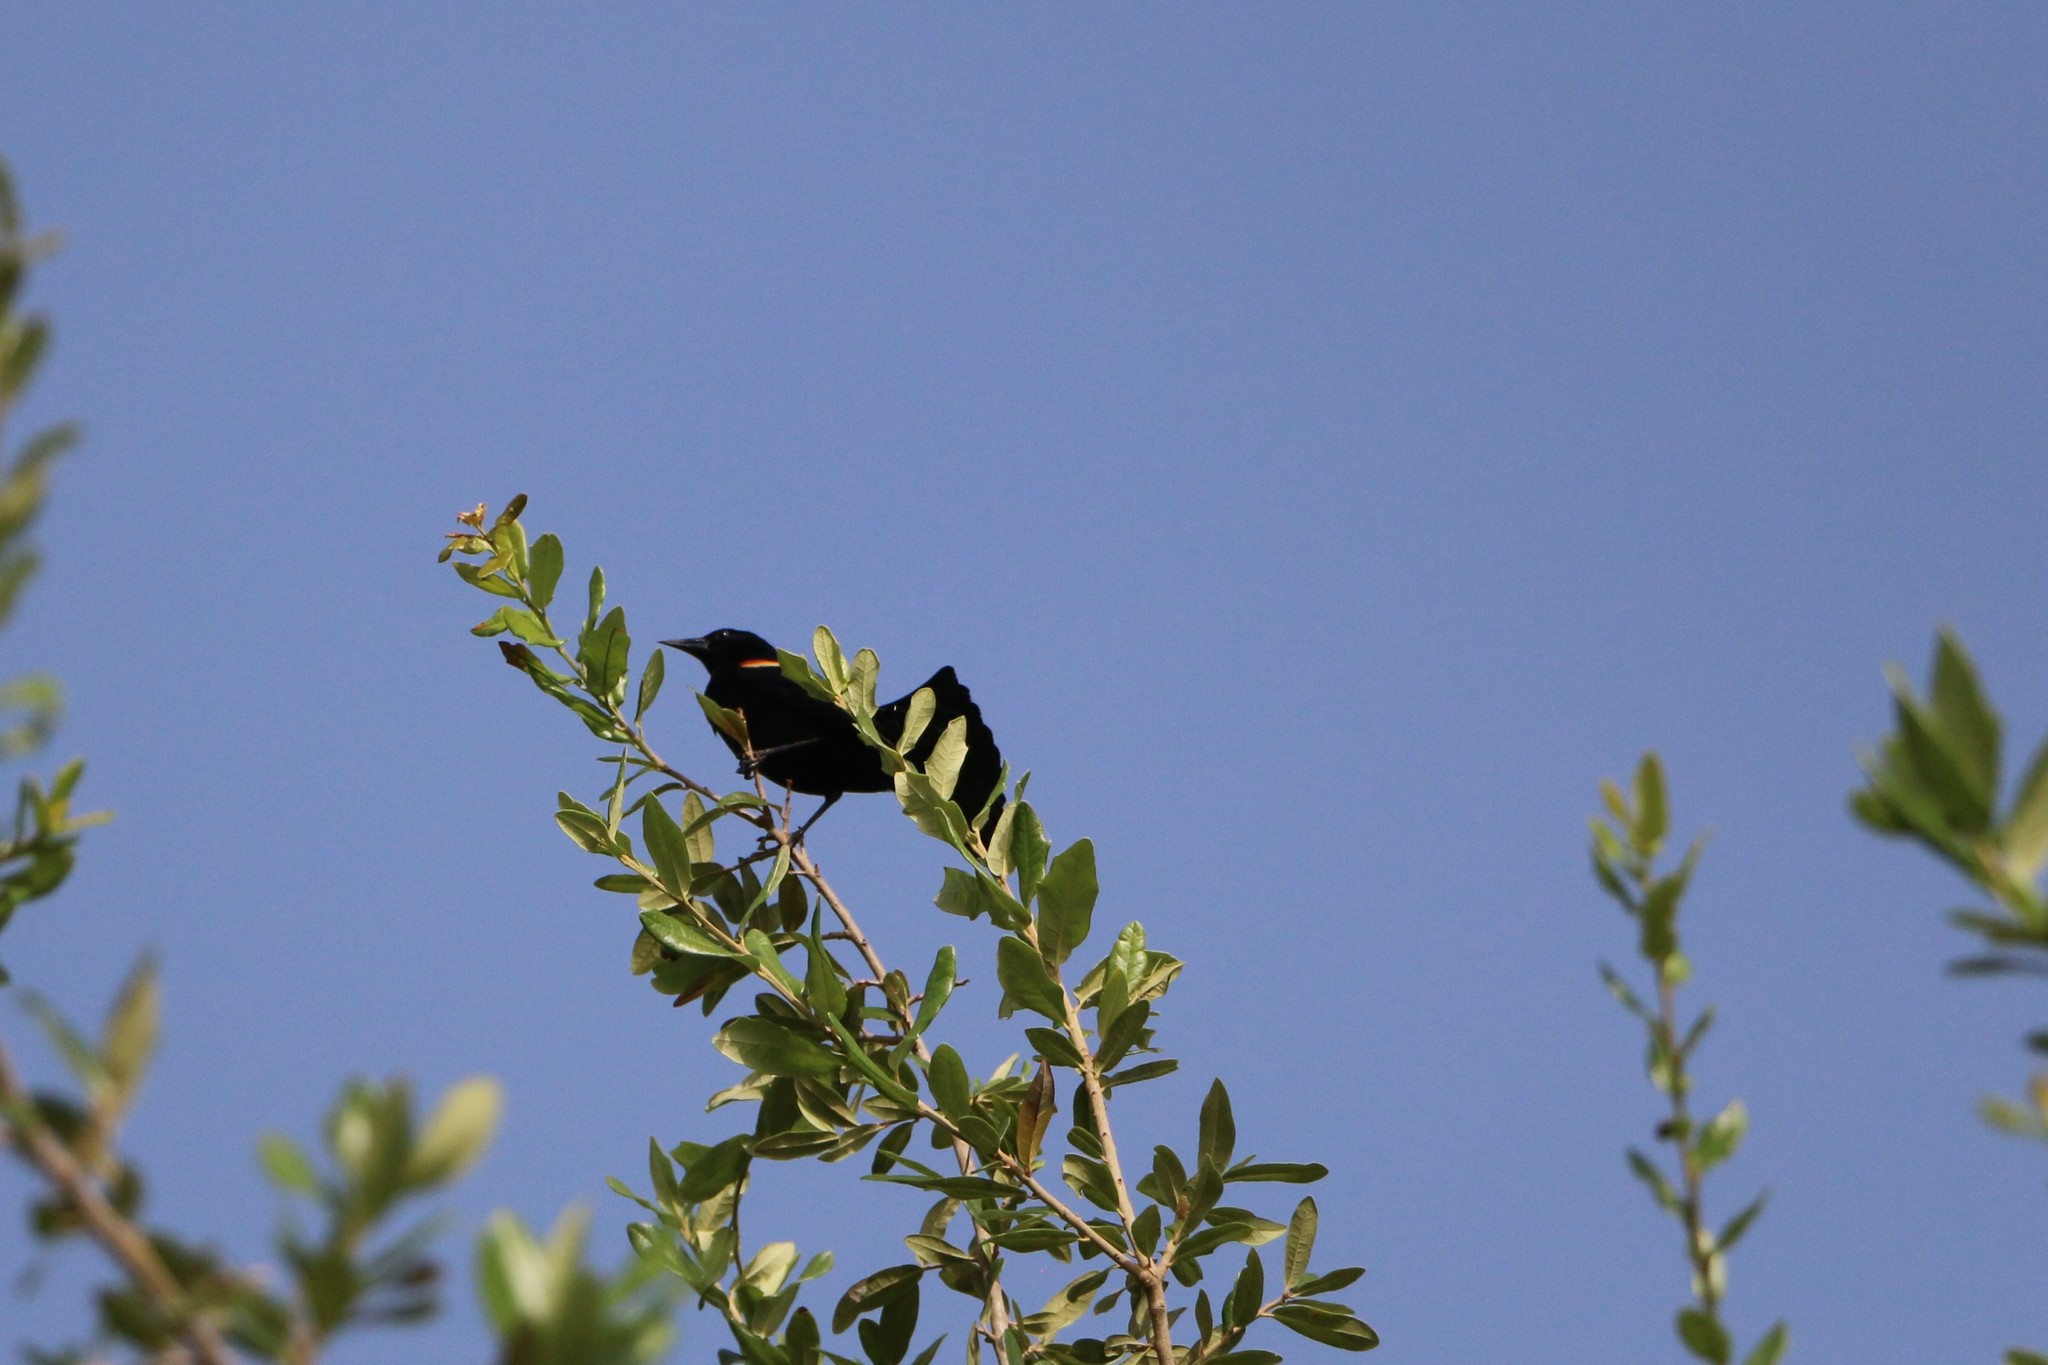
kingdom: Animalia
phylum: Chordata
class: Aves
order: Passeriformes
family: Icteridae
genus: Agelaius
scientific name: Agelaius phoeniceus
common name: Red-winged blackbird
